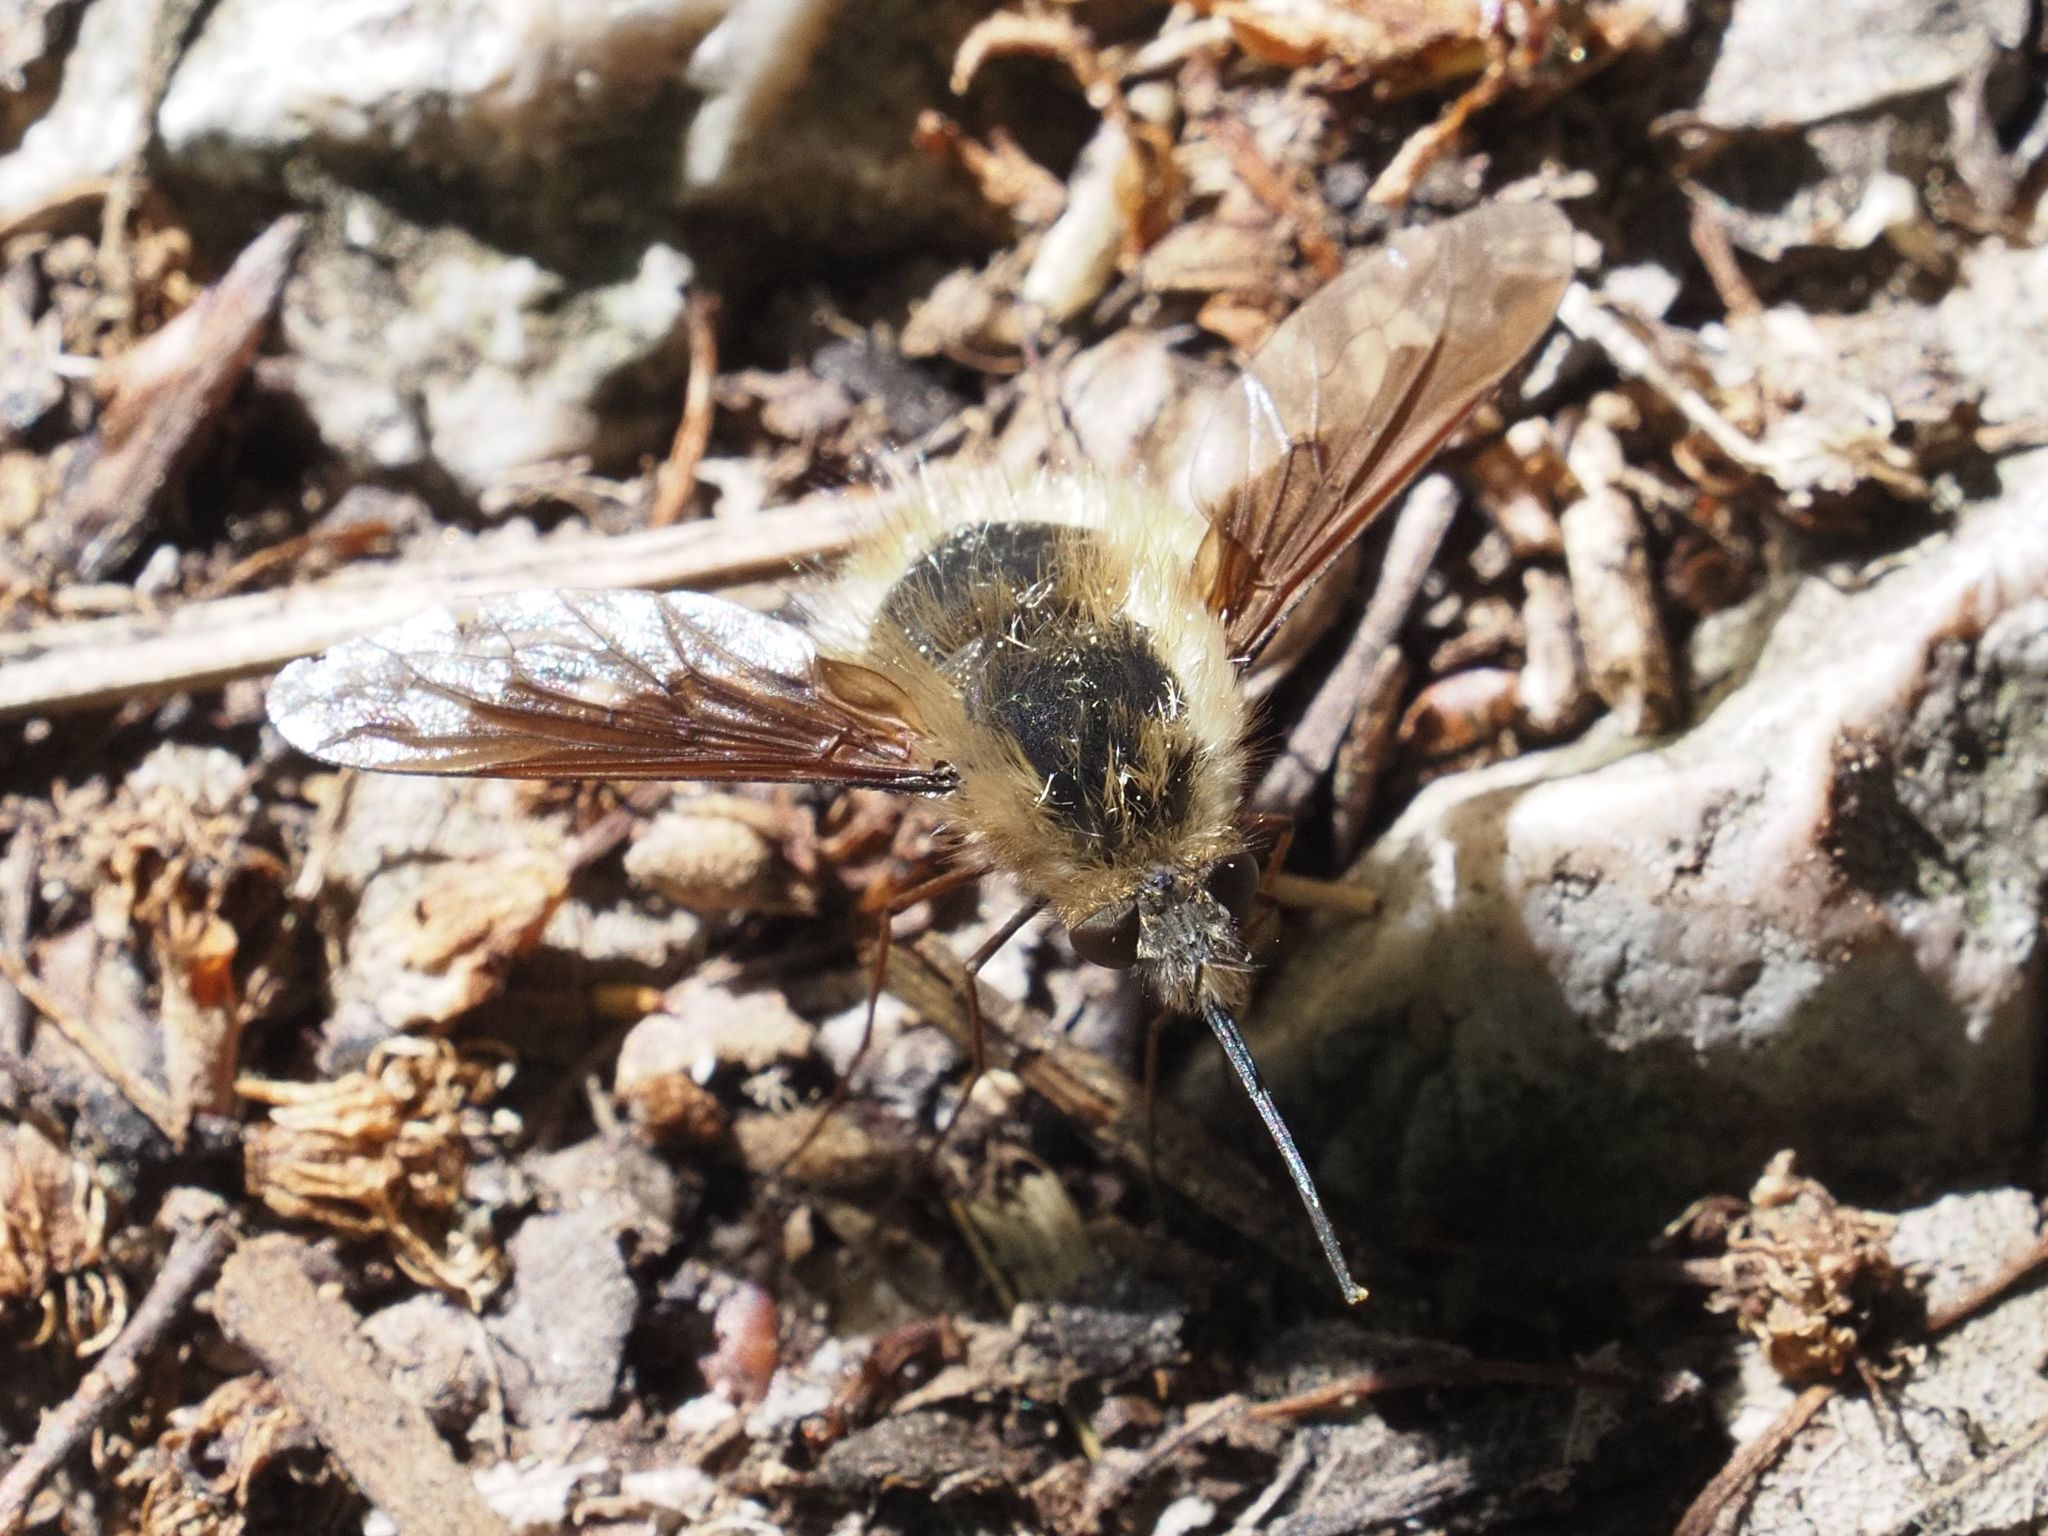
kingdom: Animalia
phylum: Arthropoda
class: Insecta
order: Diptera
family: Bombyliidae
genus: Bombylius
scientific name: Bombylius major
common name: Bee fly
